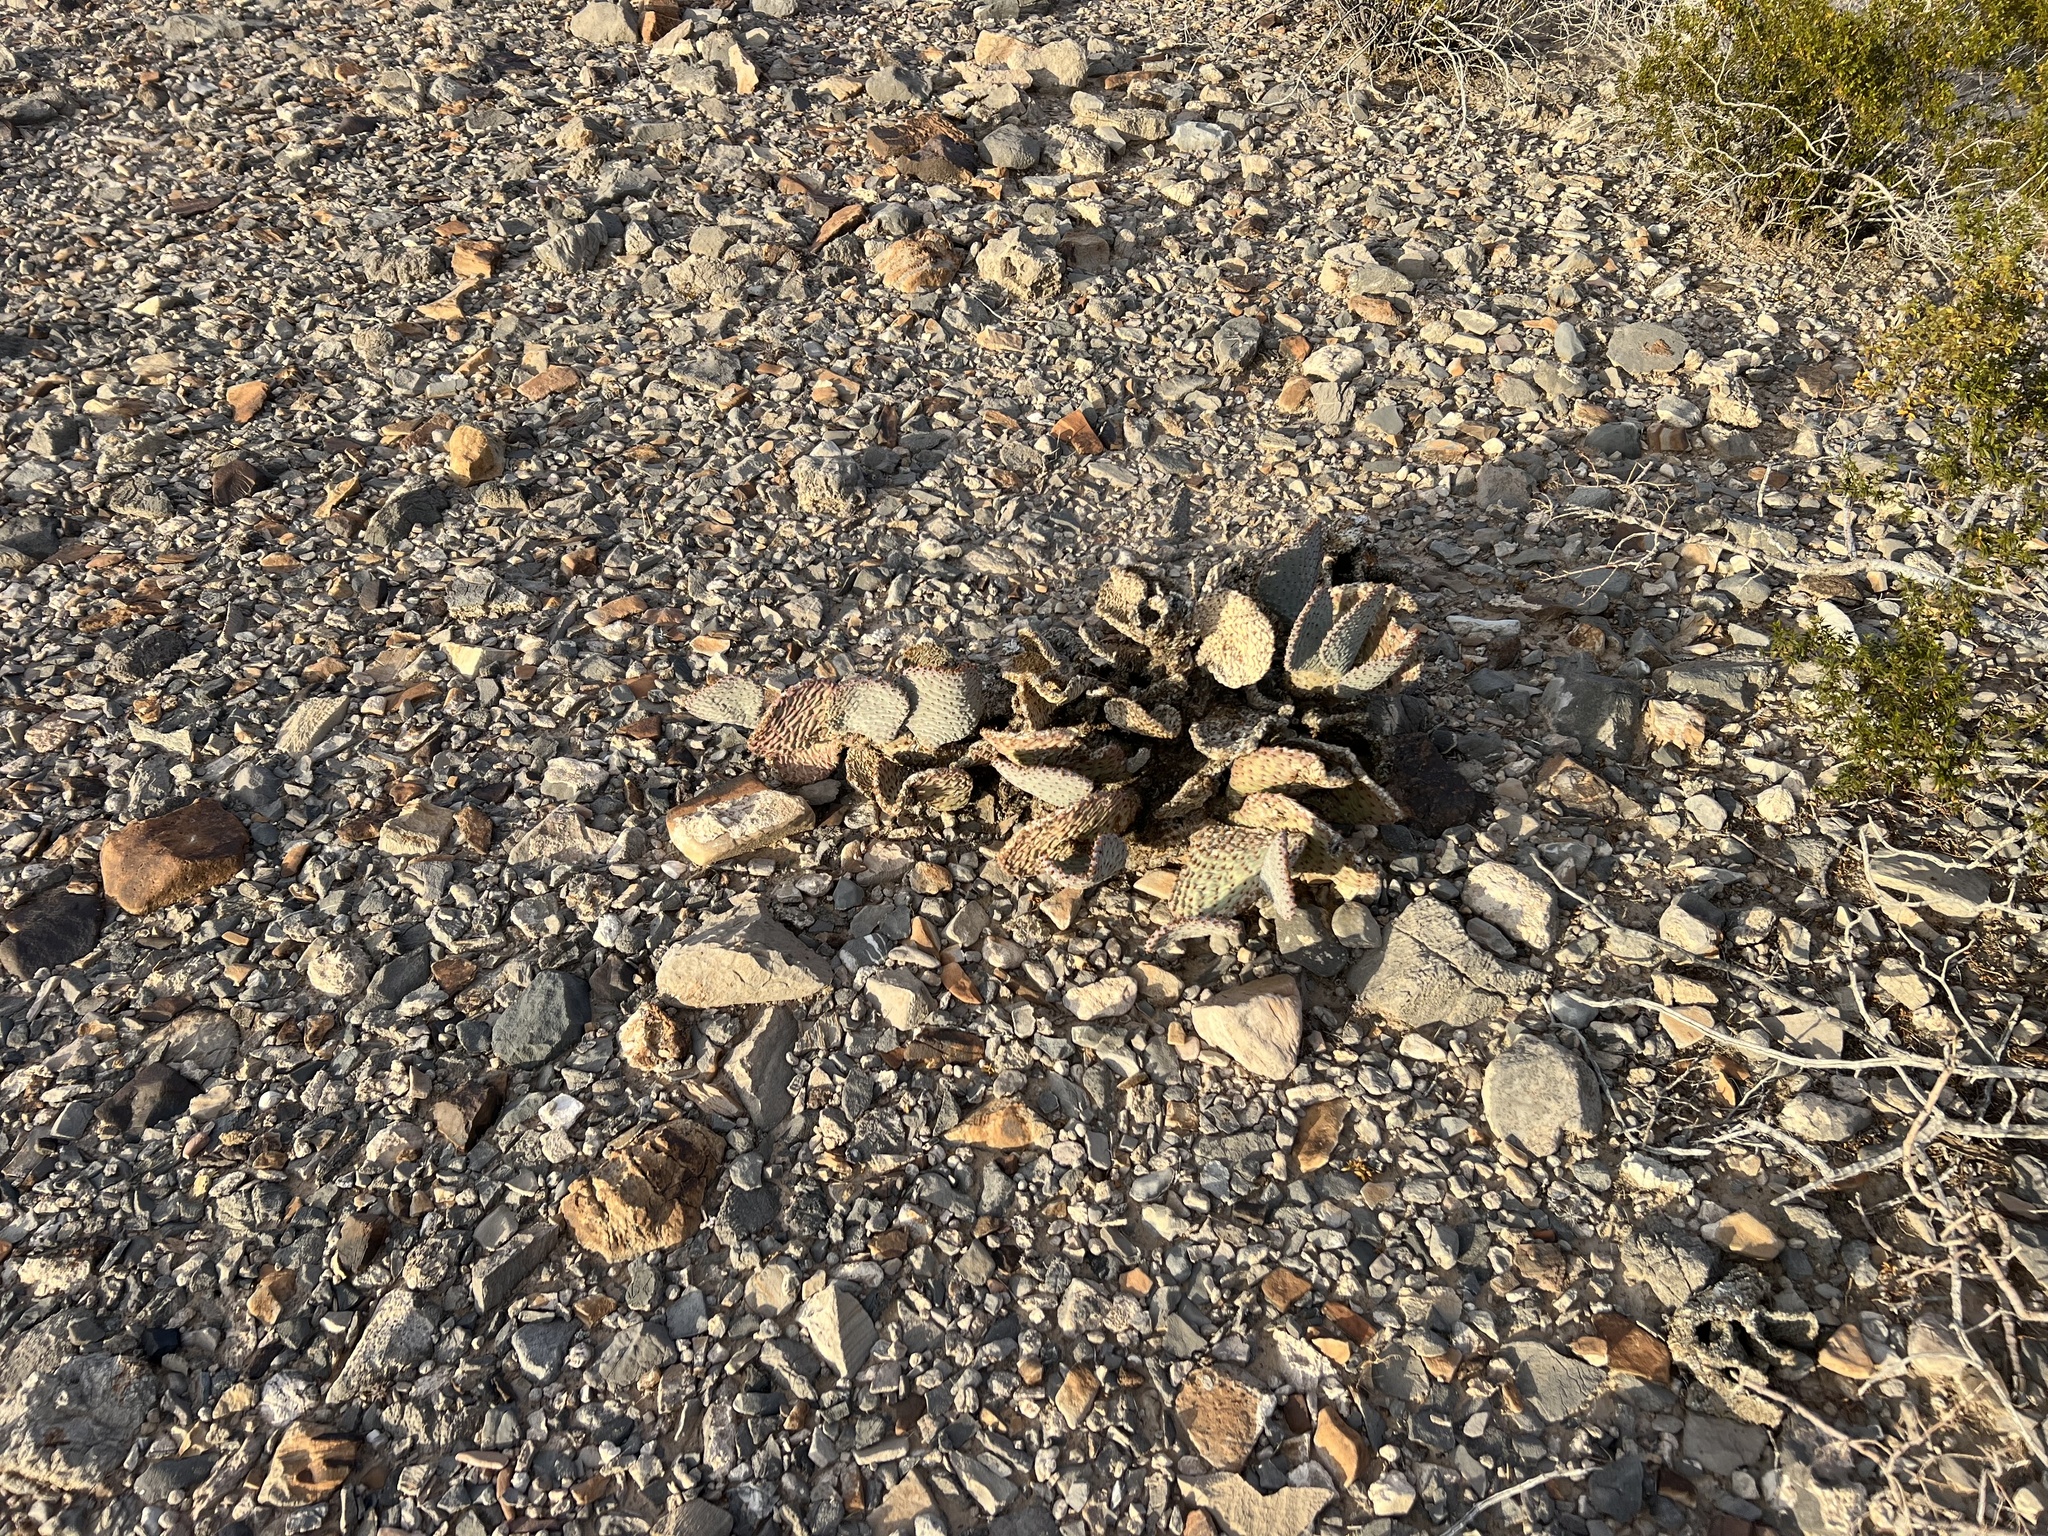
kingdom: Plantae
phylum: Tracheophyta
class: Magnoliopsida
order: Caryophyllales
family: Cactaceae
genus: Opuntia
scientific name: Opuntia basilaris
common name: Beavertail prickly-pear
